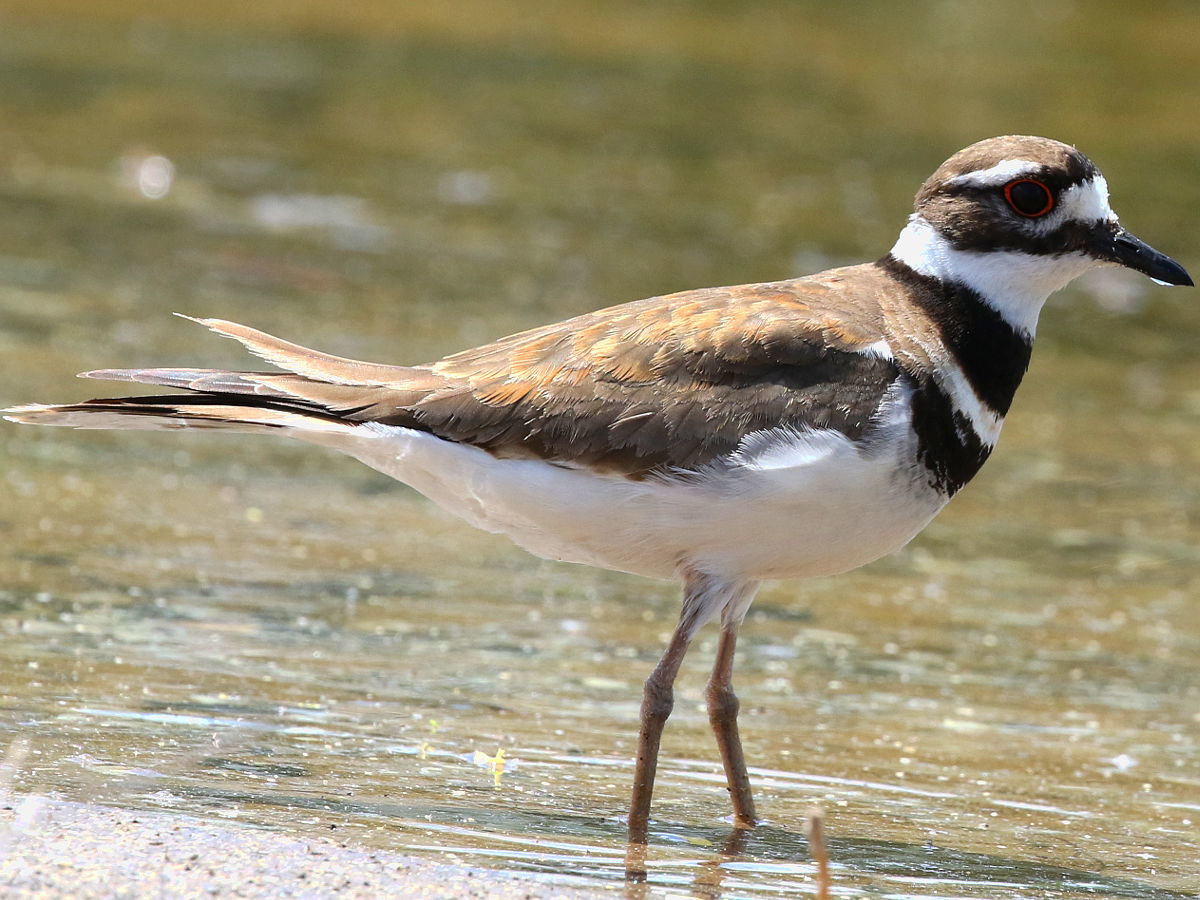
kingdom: Animalia
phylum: Chordata
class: Aves
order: Charadriiformes
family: Charadriidae
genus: Charadrius
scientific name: Charadrius vociferus
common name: Killdeer
